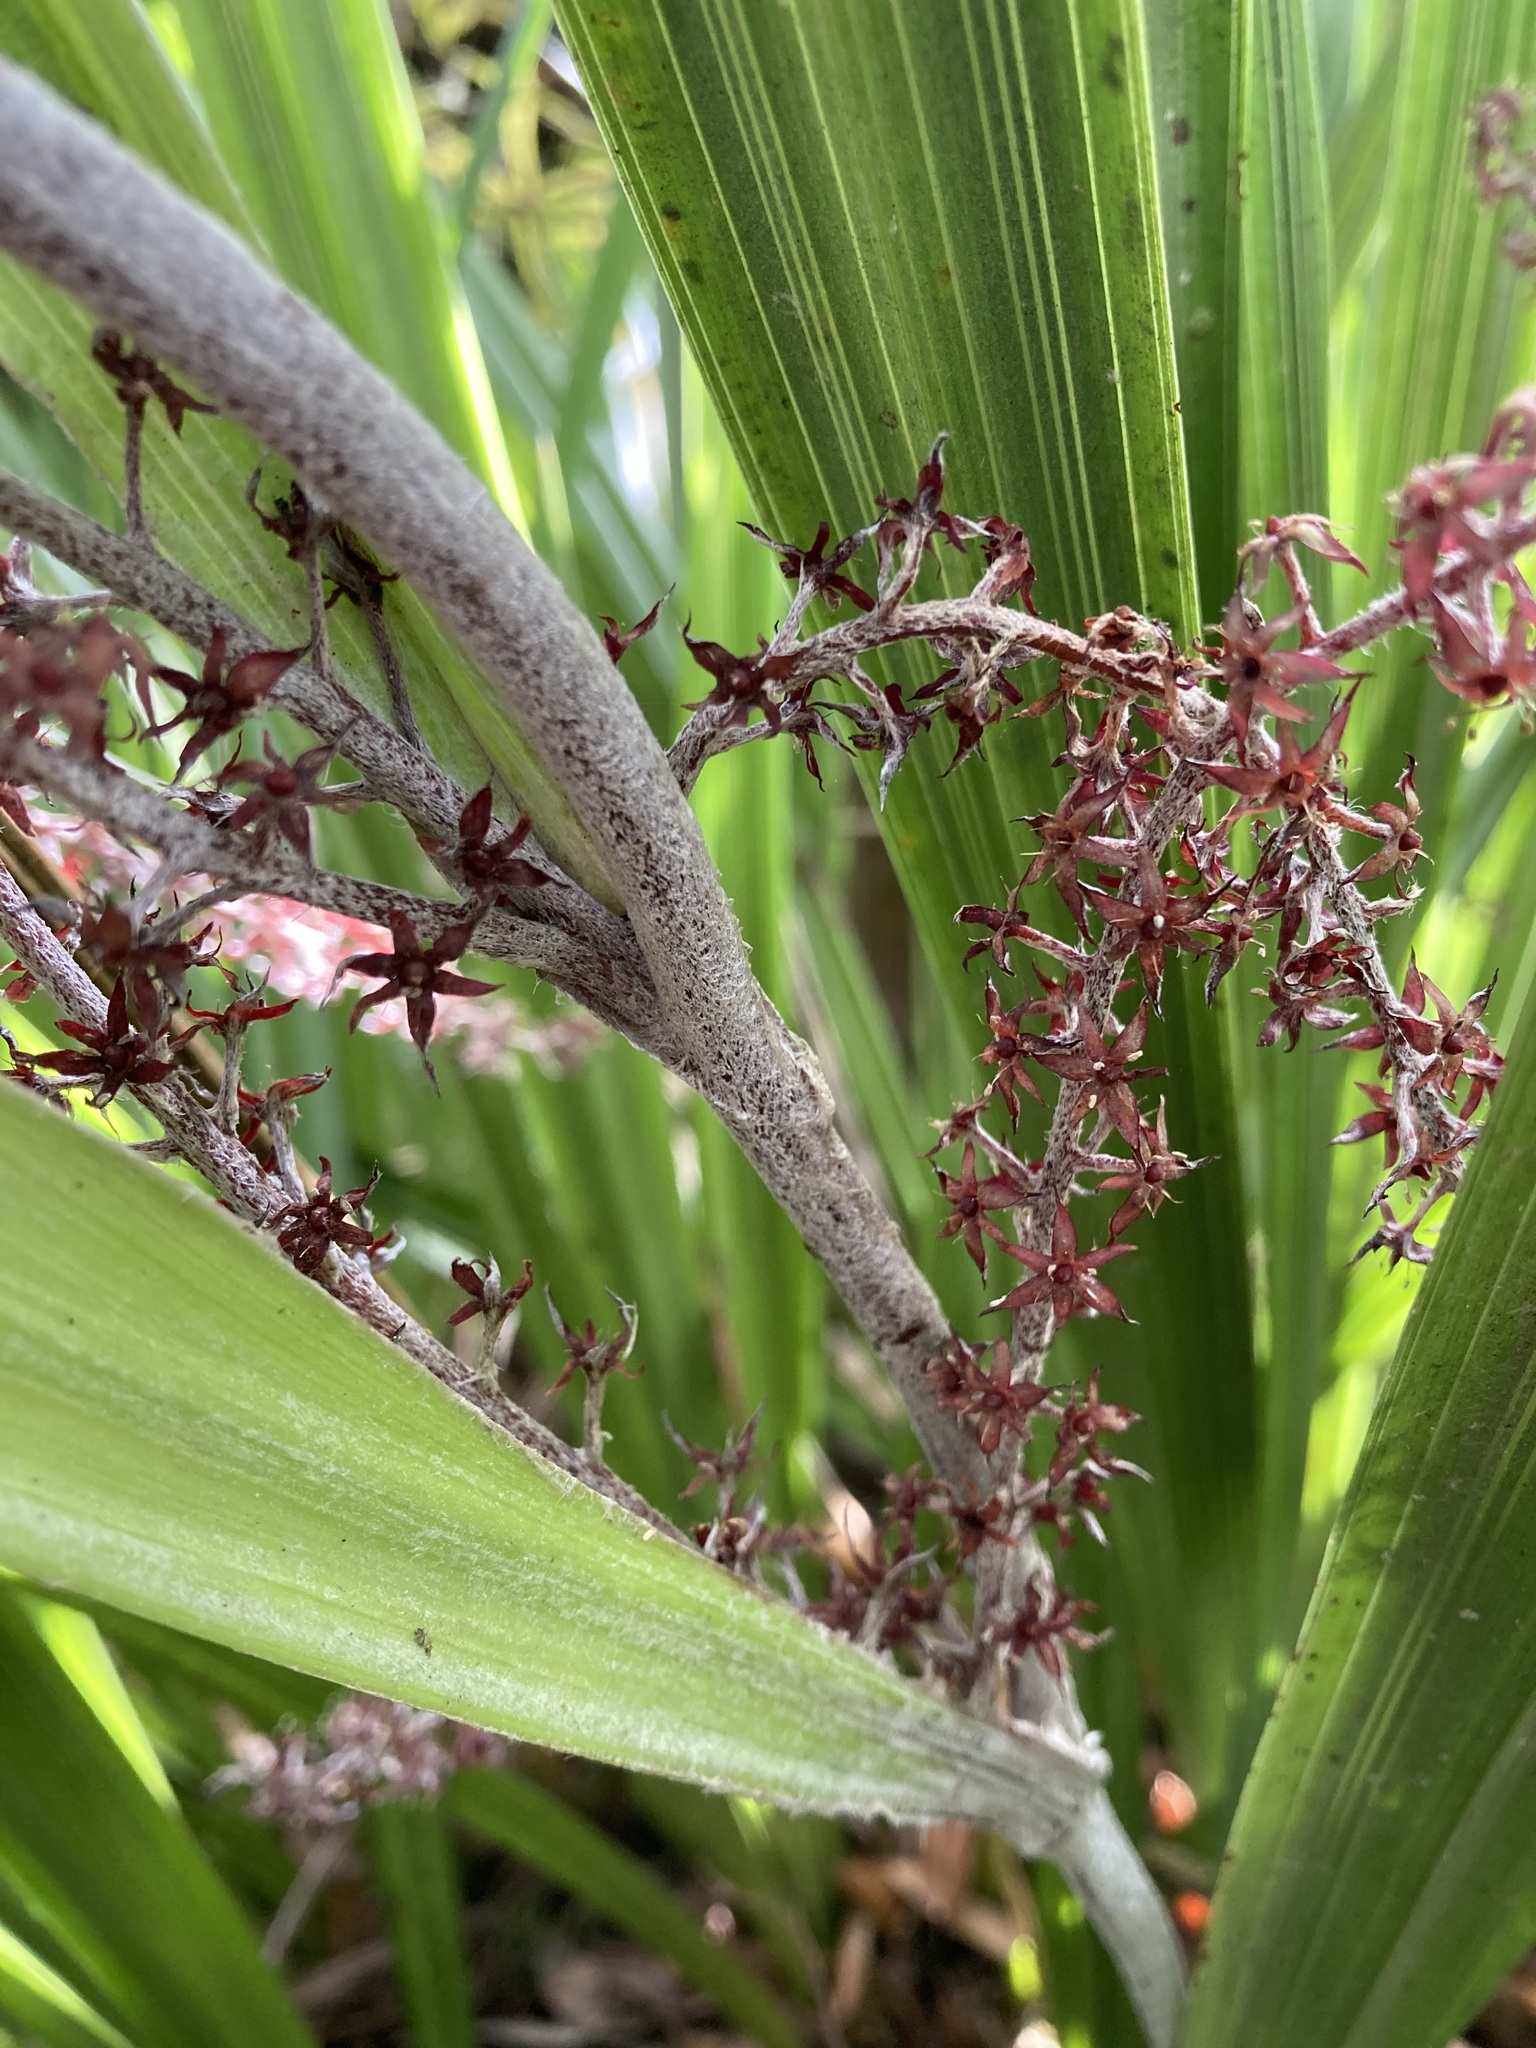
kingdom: Plantae
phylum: Tracheophyta
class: Liliopsida
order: Asparagales
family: Asteliaceae
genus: Astelia
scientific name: Astelia solandri
